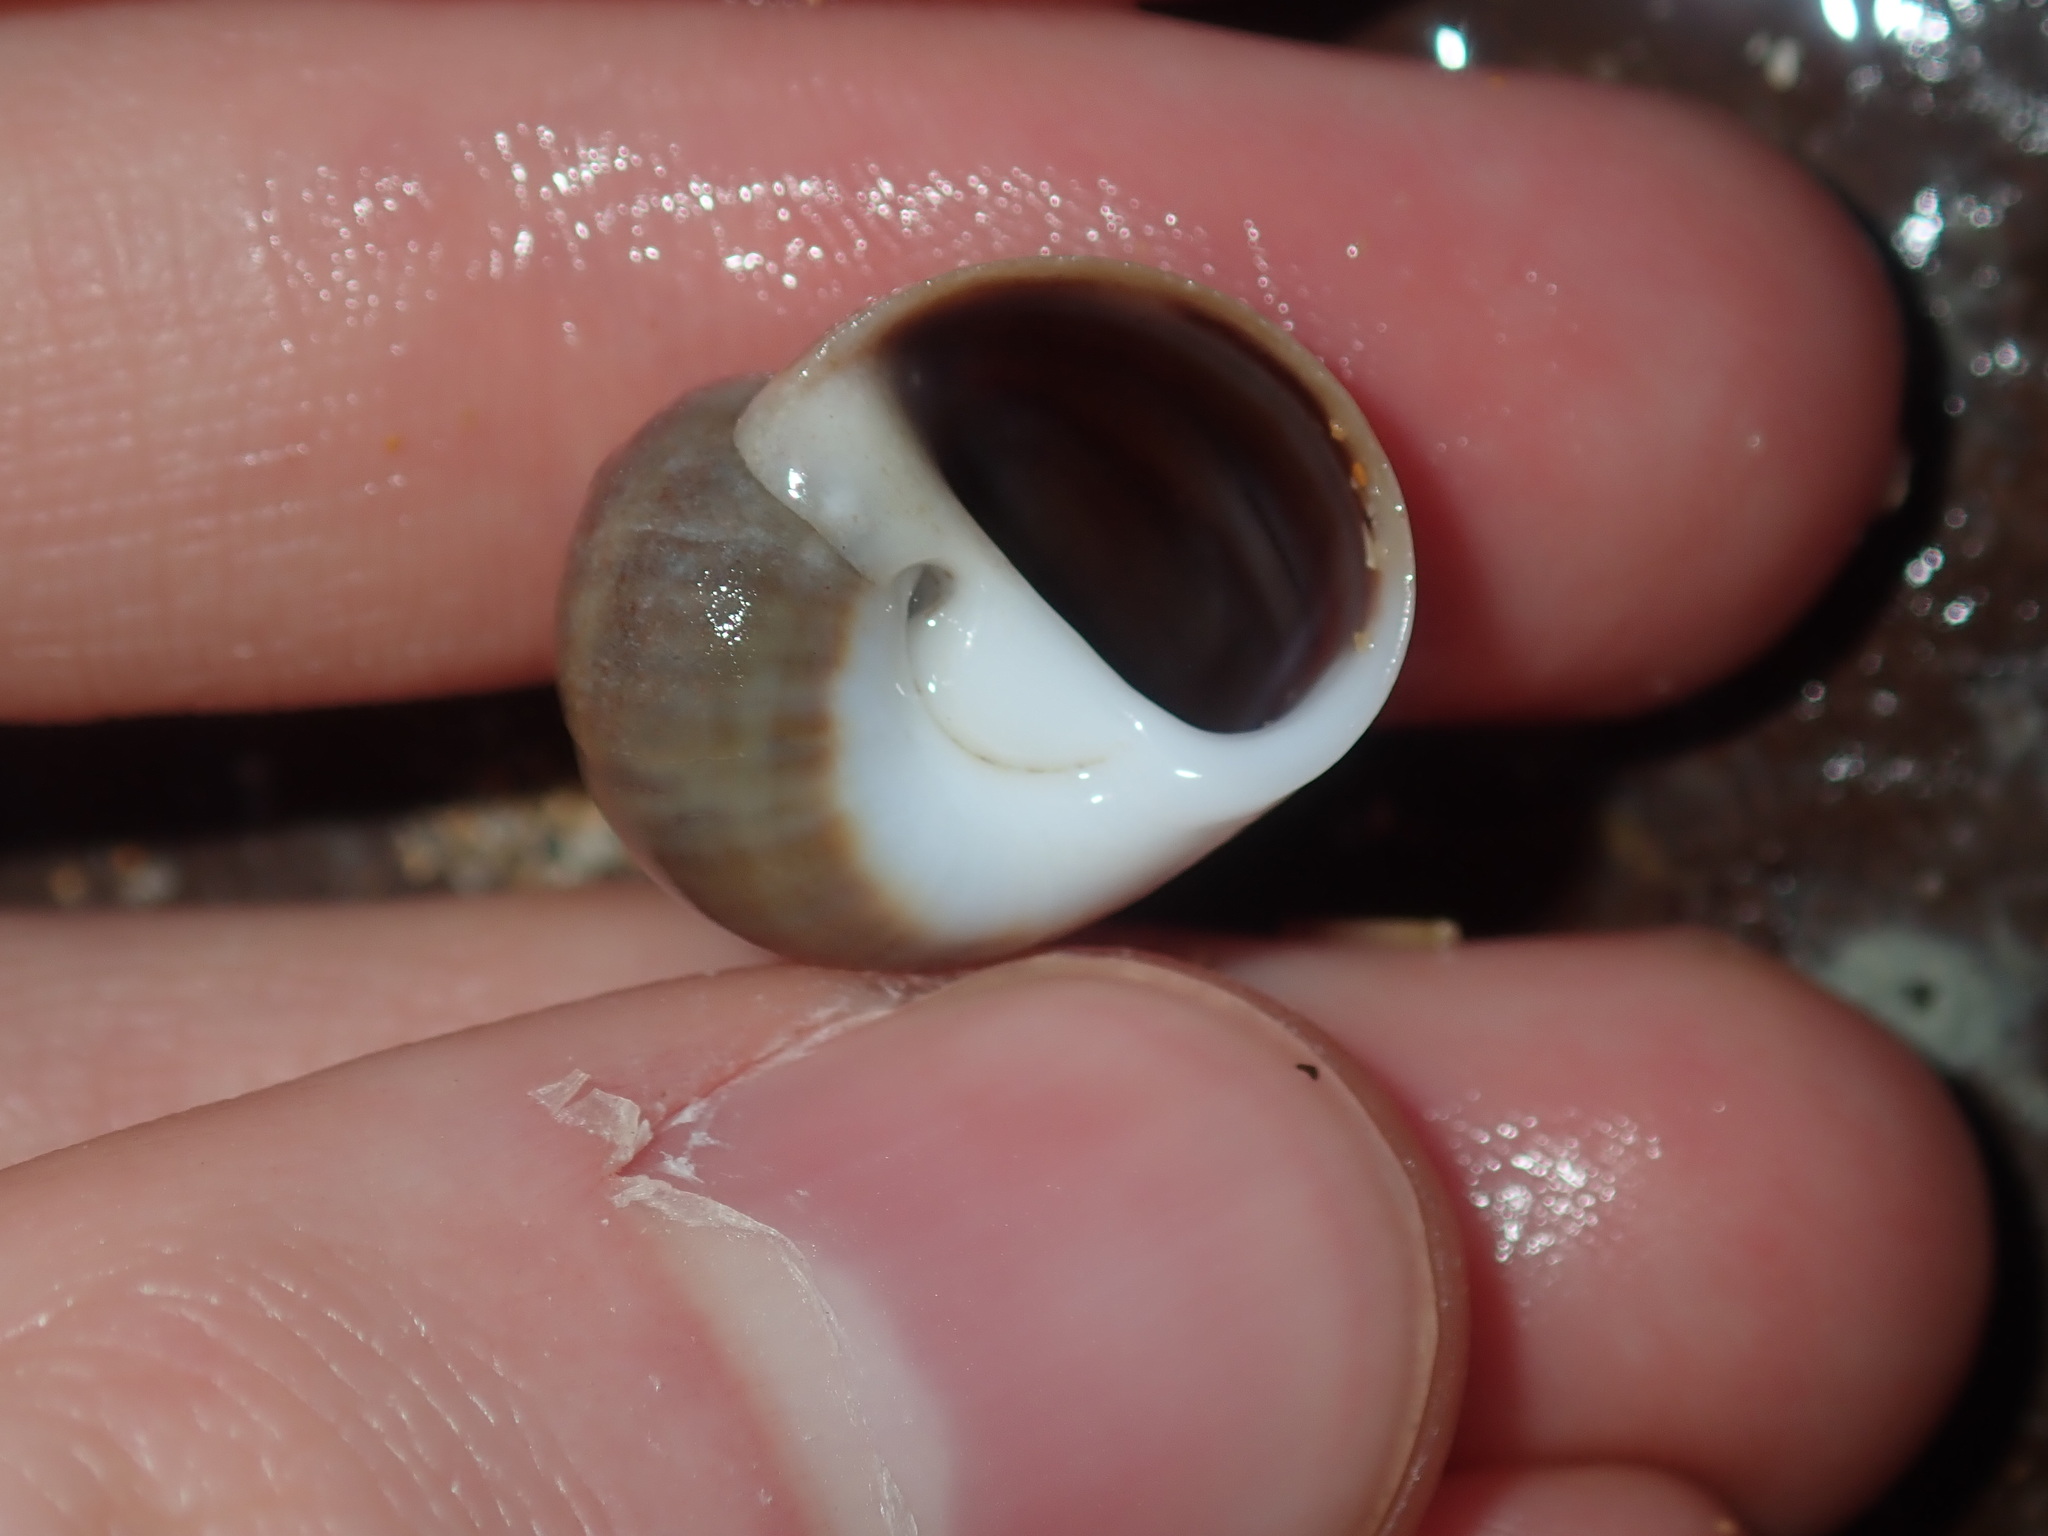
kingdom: Animalia
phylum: Mollusca
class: Gastropoda
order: Littorinimorpha
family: Naticidae
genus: Notocochlis
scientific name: Notocochlis gualteriana
